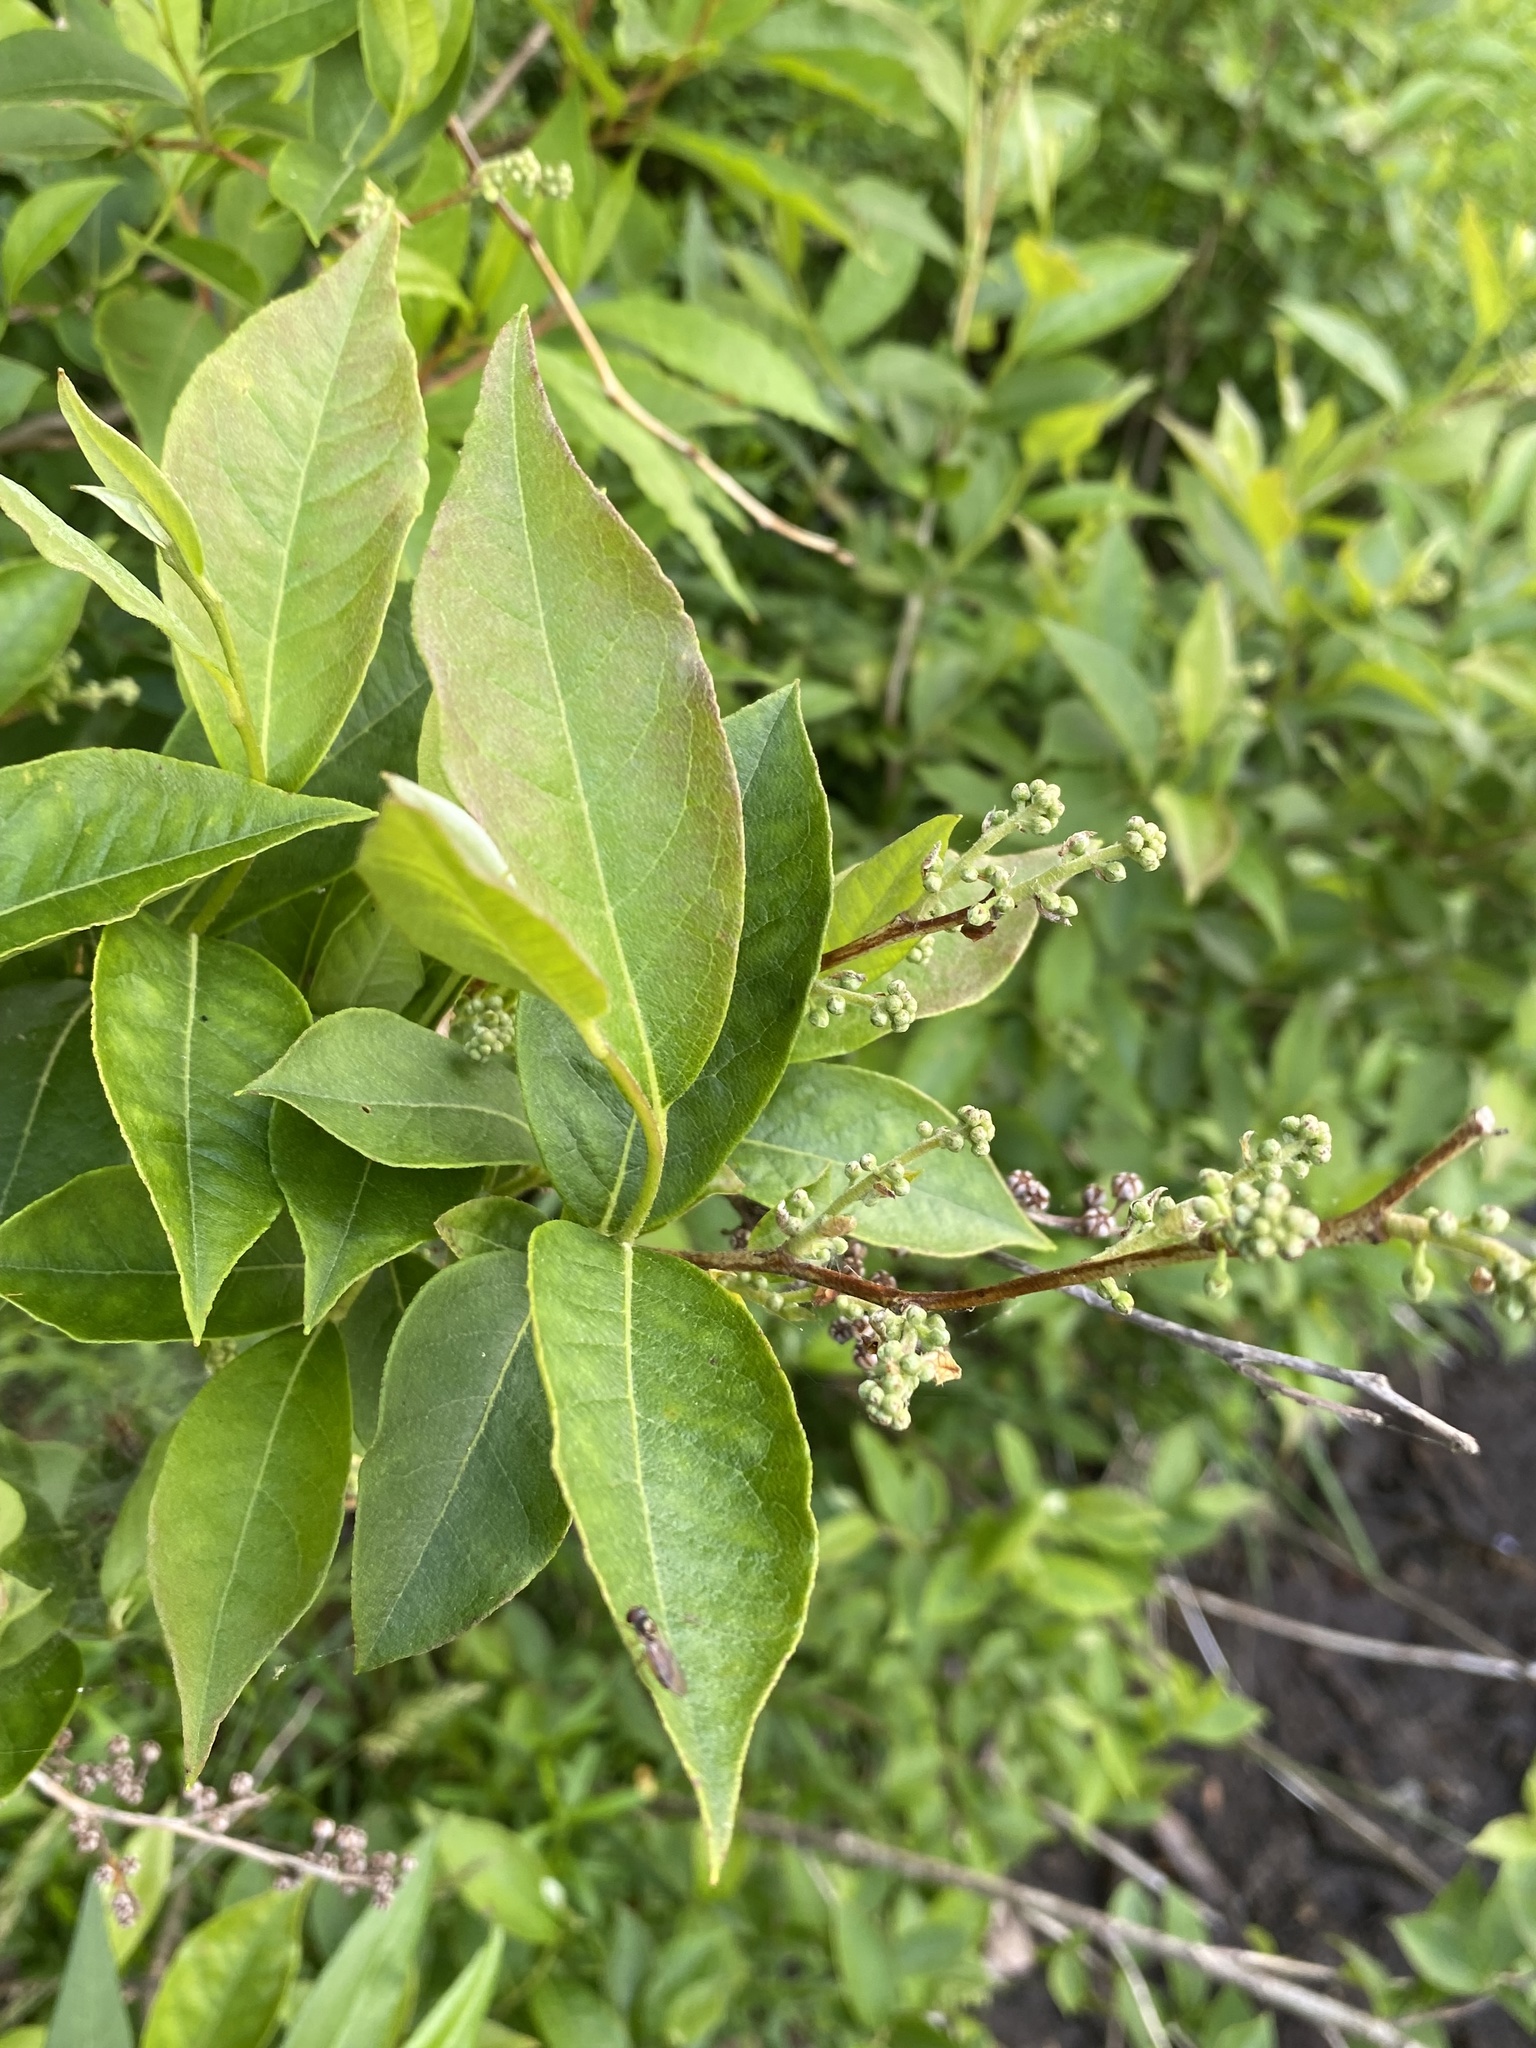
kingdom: Plantae
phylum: Tracheophyta
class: Magnoliopsida
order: Ericales
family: Ericaceae
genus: Lyonia
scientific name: Lyonia ligustrina
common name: Maleberry
